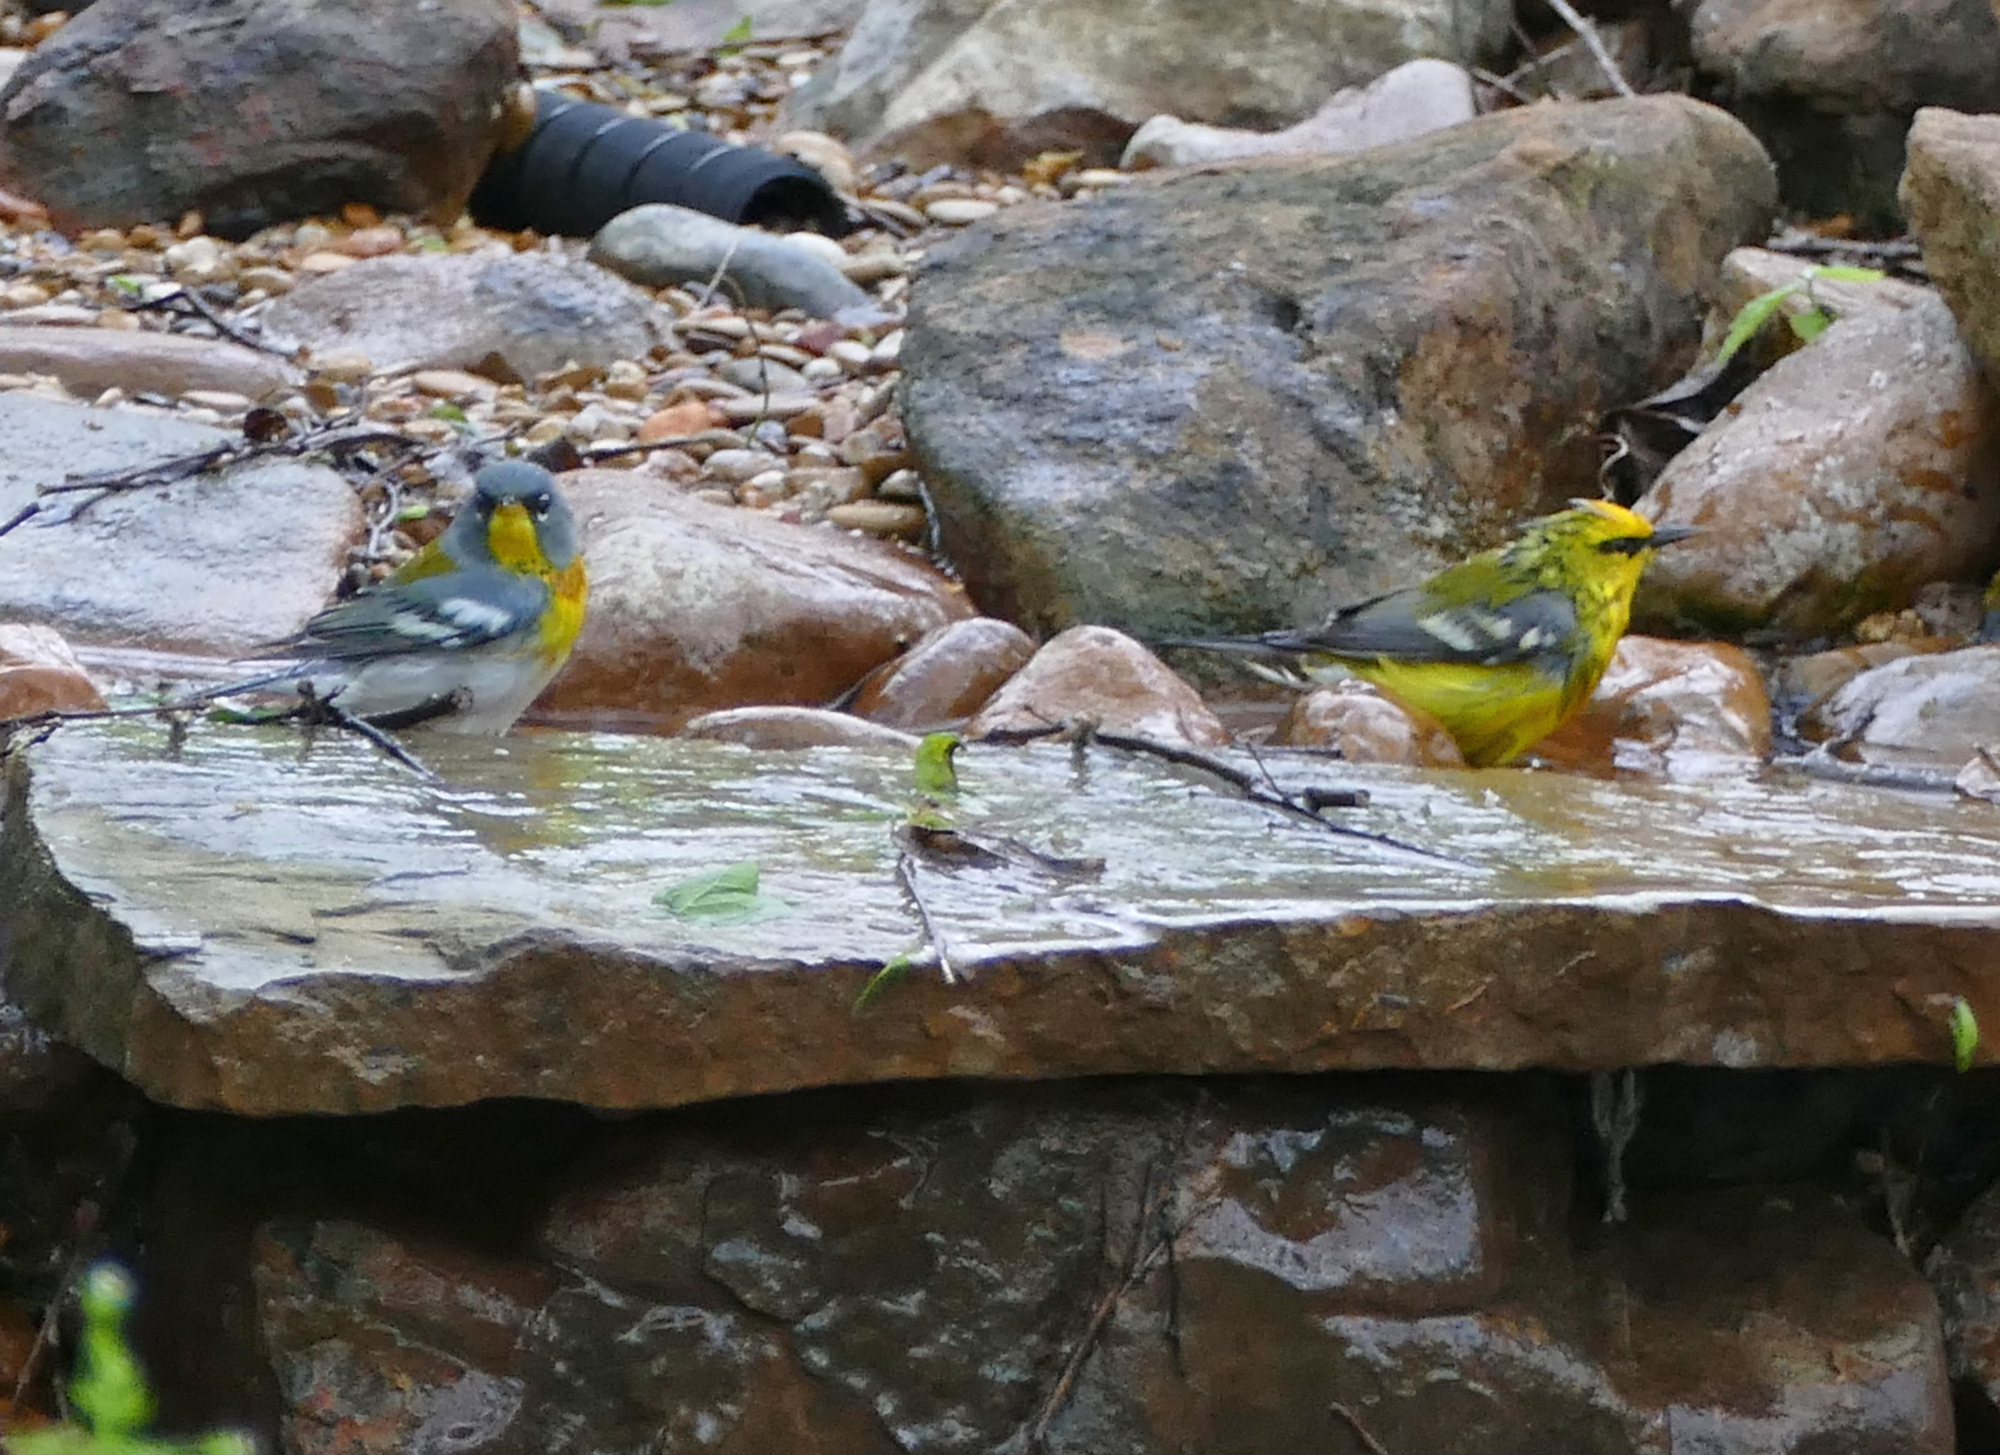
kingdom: Animalia
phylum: Chordata
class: Aves
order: Passeriformes
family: Parulidae
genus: Setophaga
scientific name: Setophaga americana
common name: Northern parula
